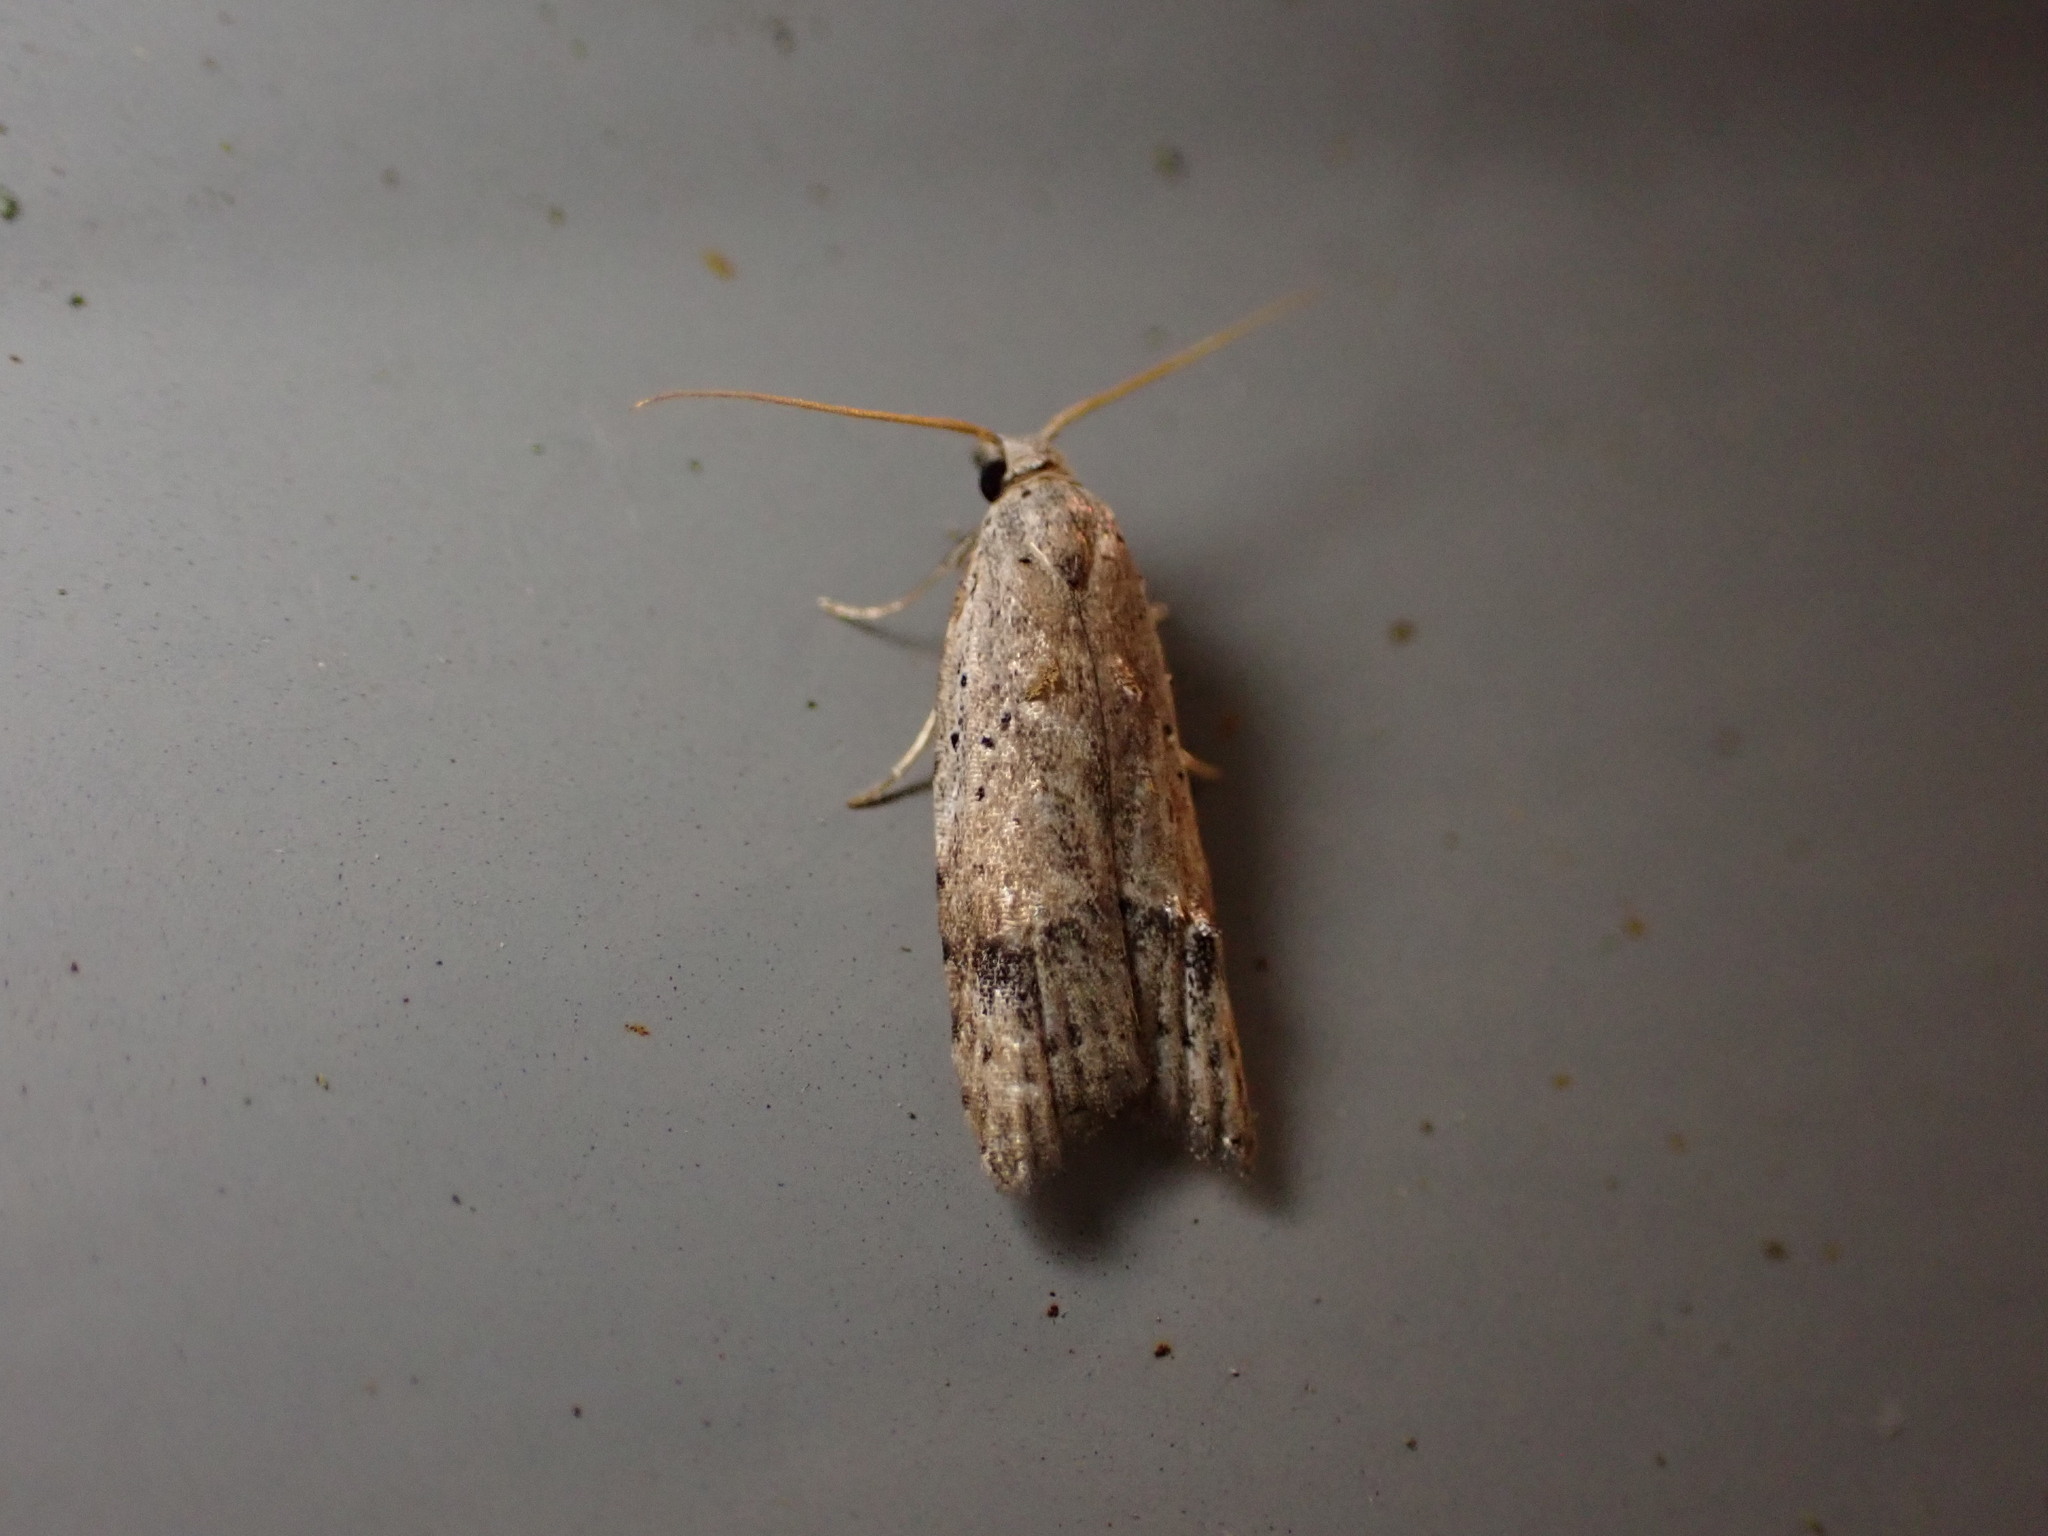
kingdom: Animalia
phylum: Arthropoda
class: Insecta
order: Lepidoptera
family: Carposinidae
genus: Carposina
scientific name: Carposina rubophaga
